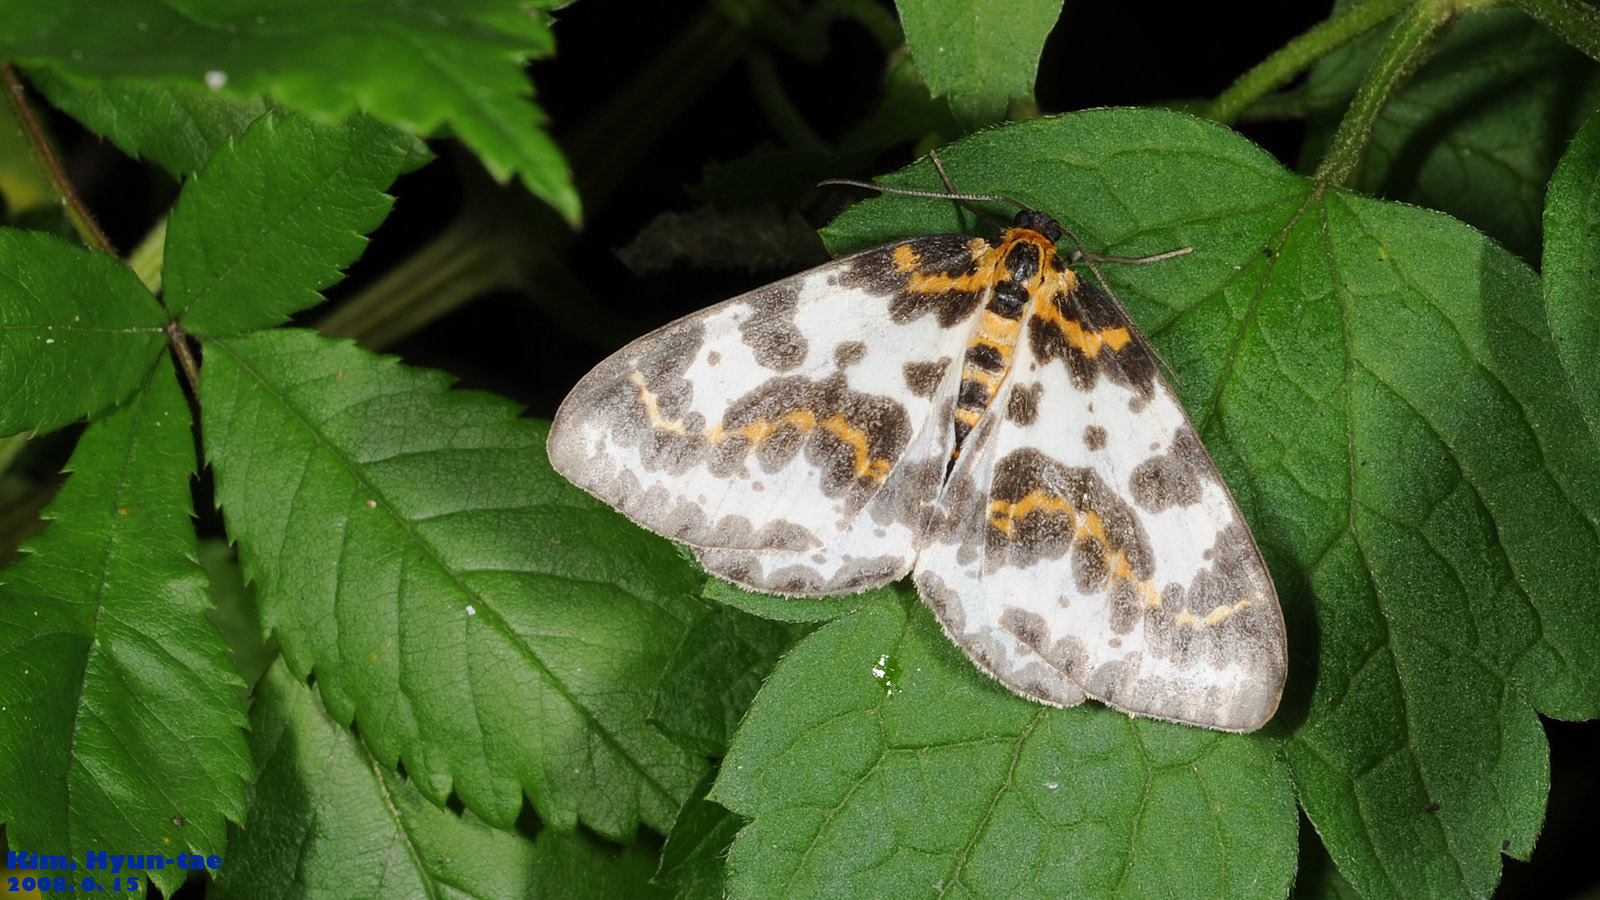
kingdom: Animalia
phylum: Arthropoda
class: Insecta
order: Lepidoptera
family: Geometridae
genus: Abraxas
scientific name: Abraxas grossulariata
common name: Magpie
